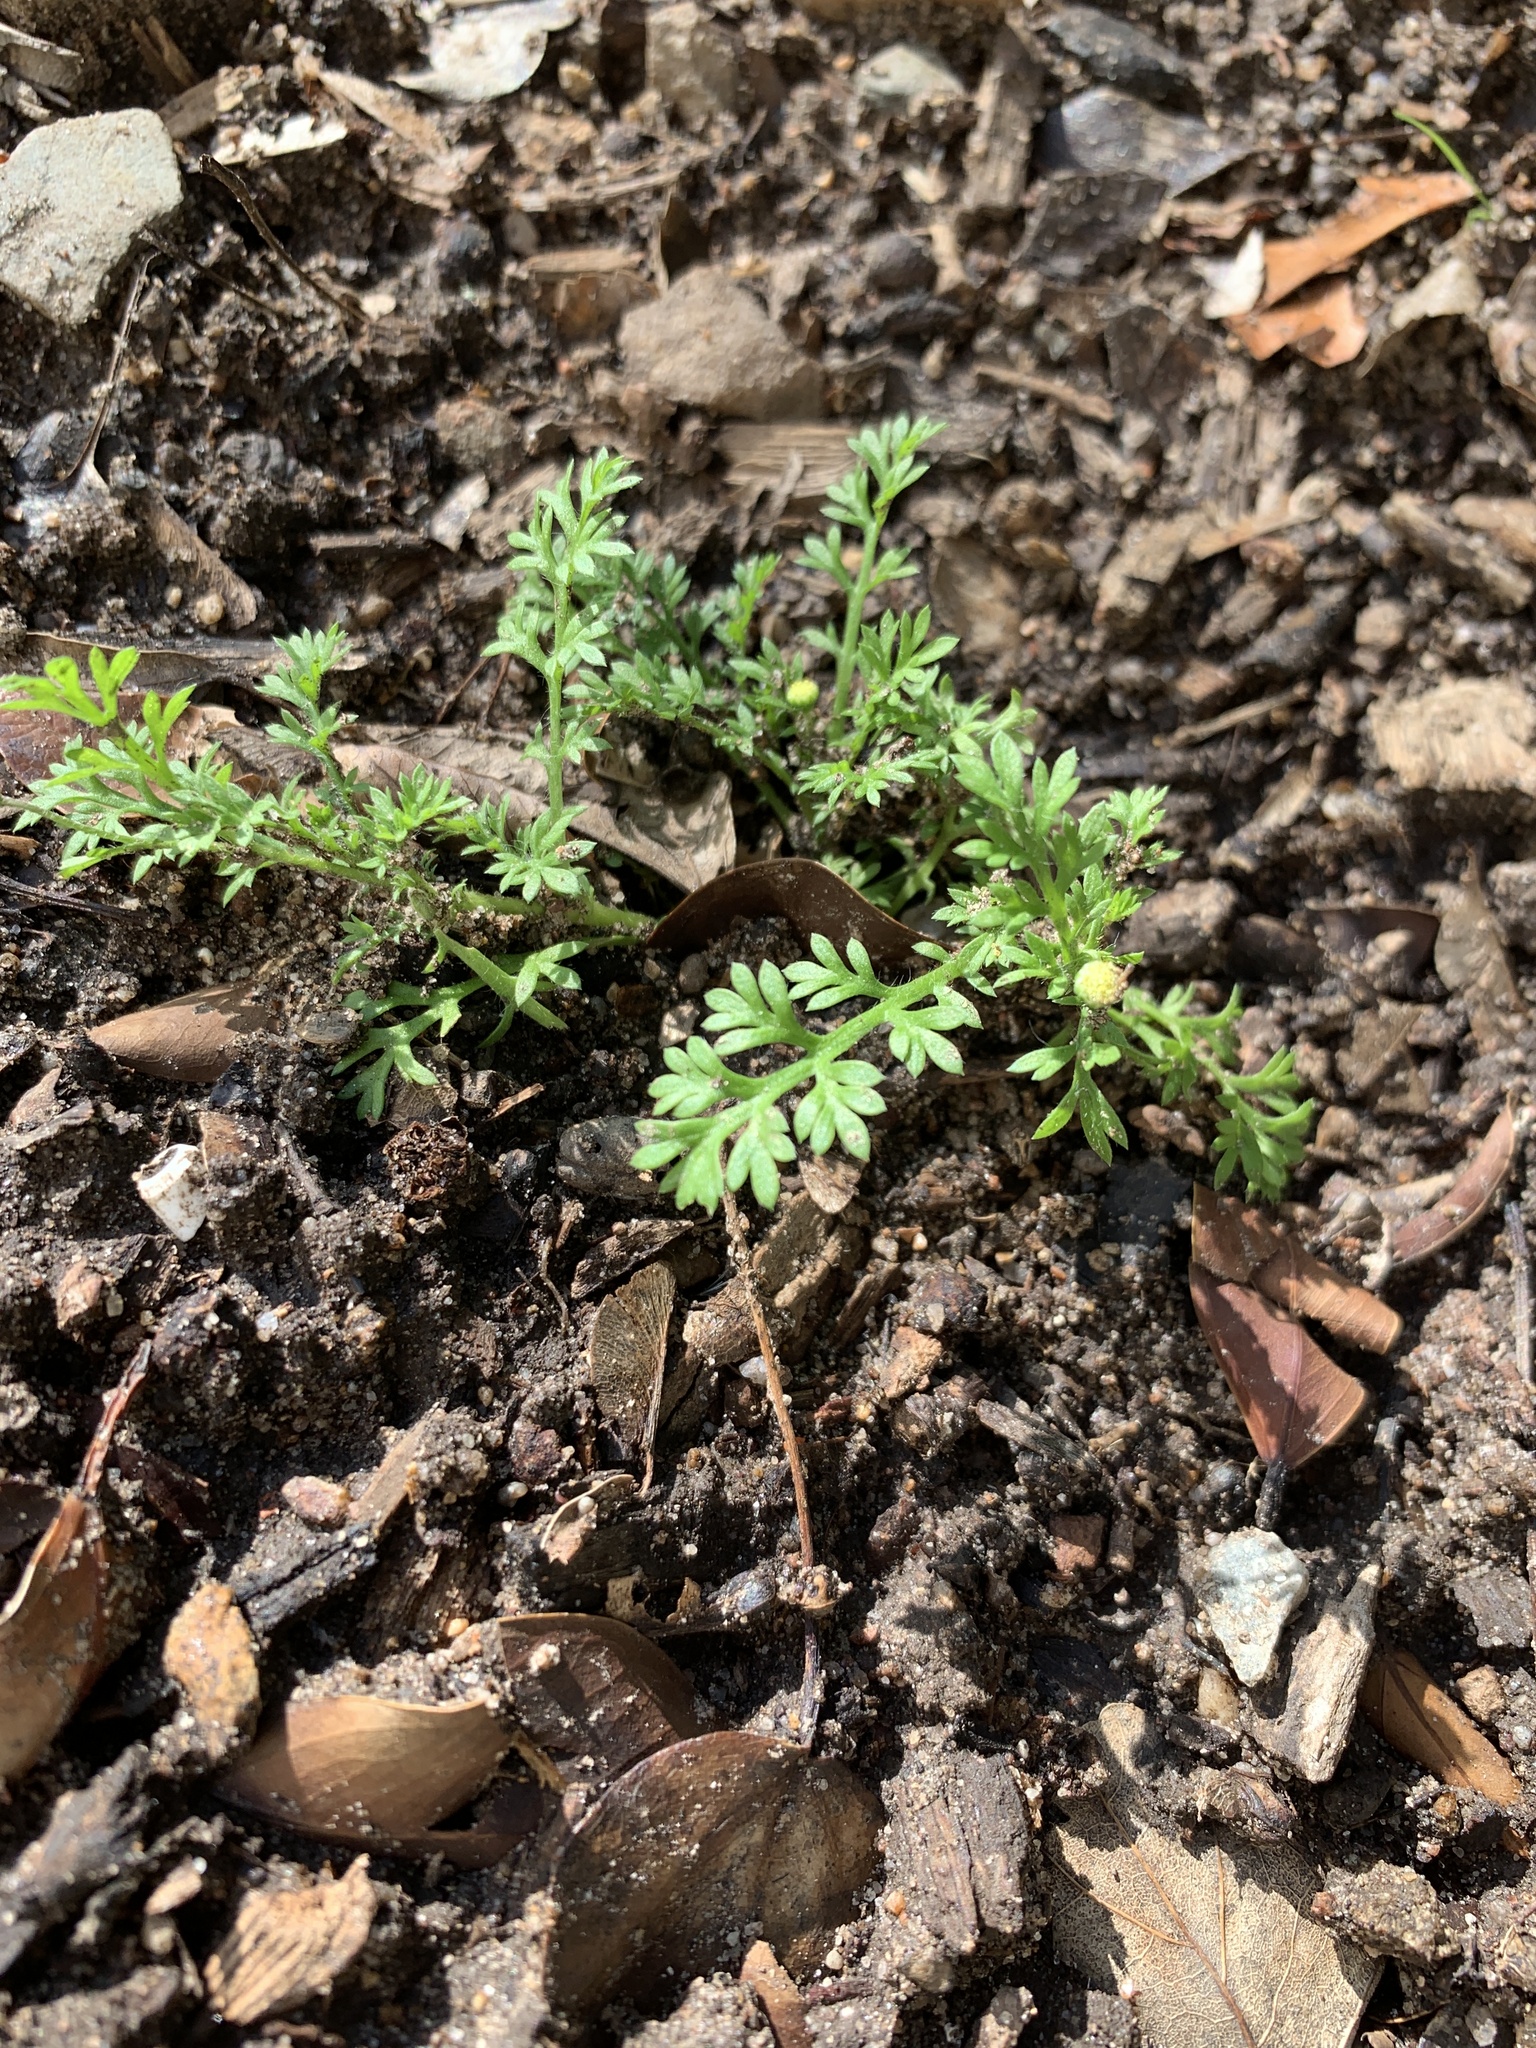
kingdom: Plantae
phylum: Tracheophyta
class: Magnoliopsida
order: Asterales
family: Asteraceae
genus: Cotula
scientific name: Cotula australis
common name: Australian waterbuttons
